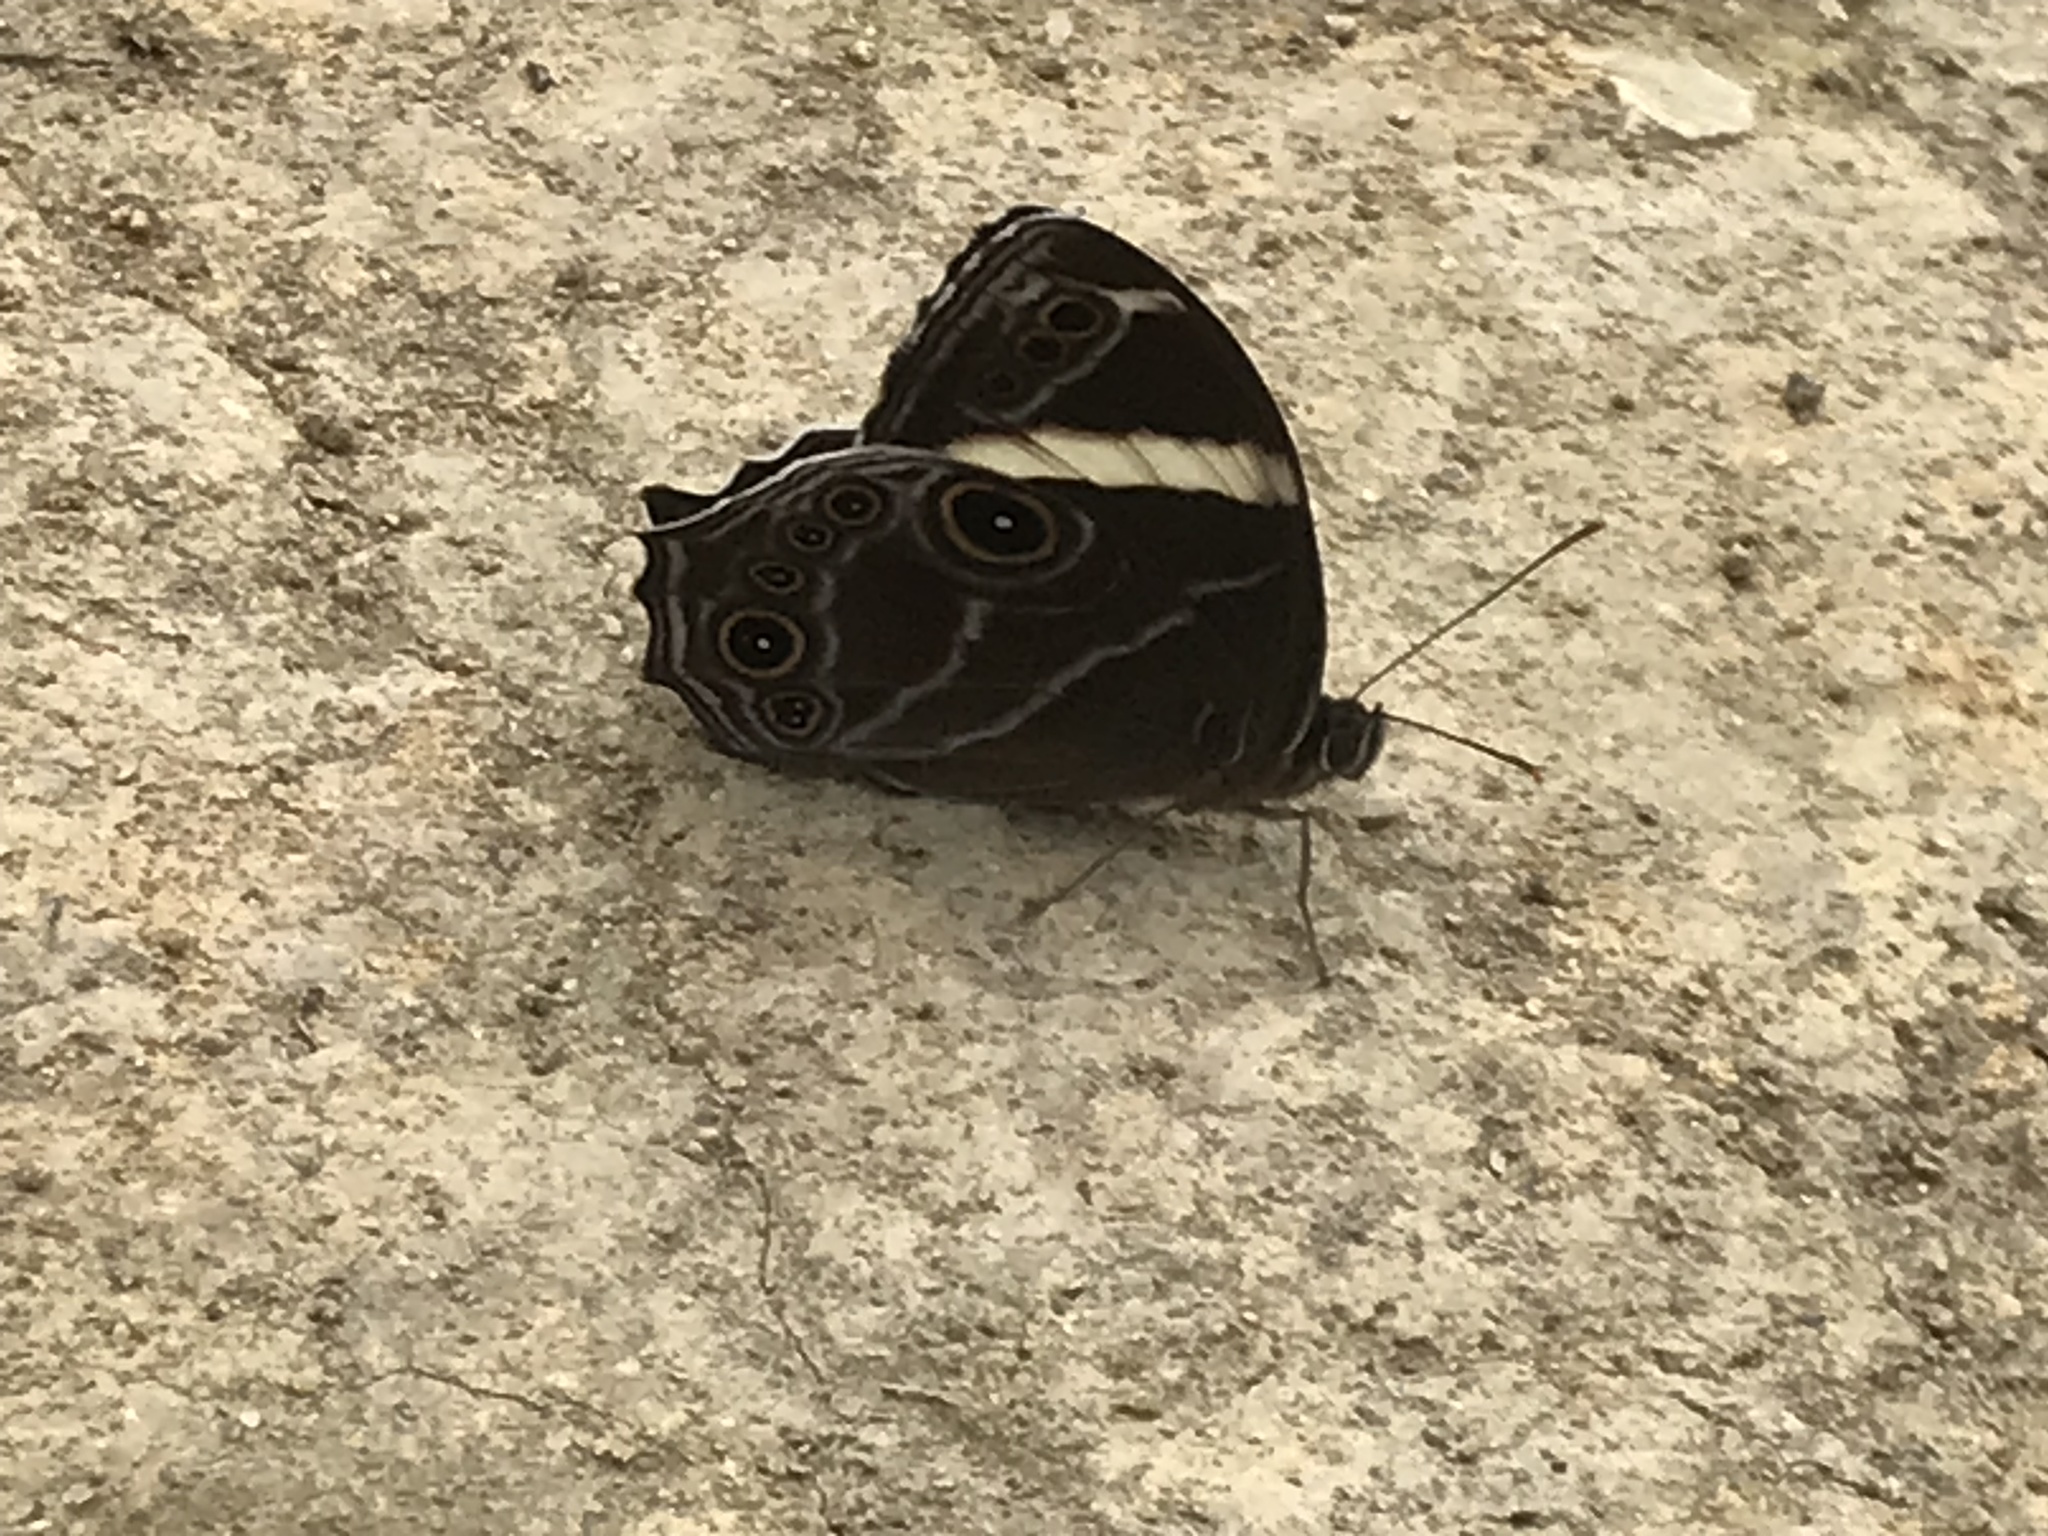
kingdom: Animalia
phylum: Arthropoda
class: Insecta
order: Lepidoptera
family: Nymphalidae
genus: Lethe
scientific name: Lethe confusa
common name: Banded treebrown
